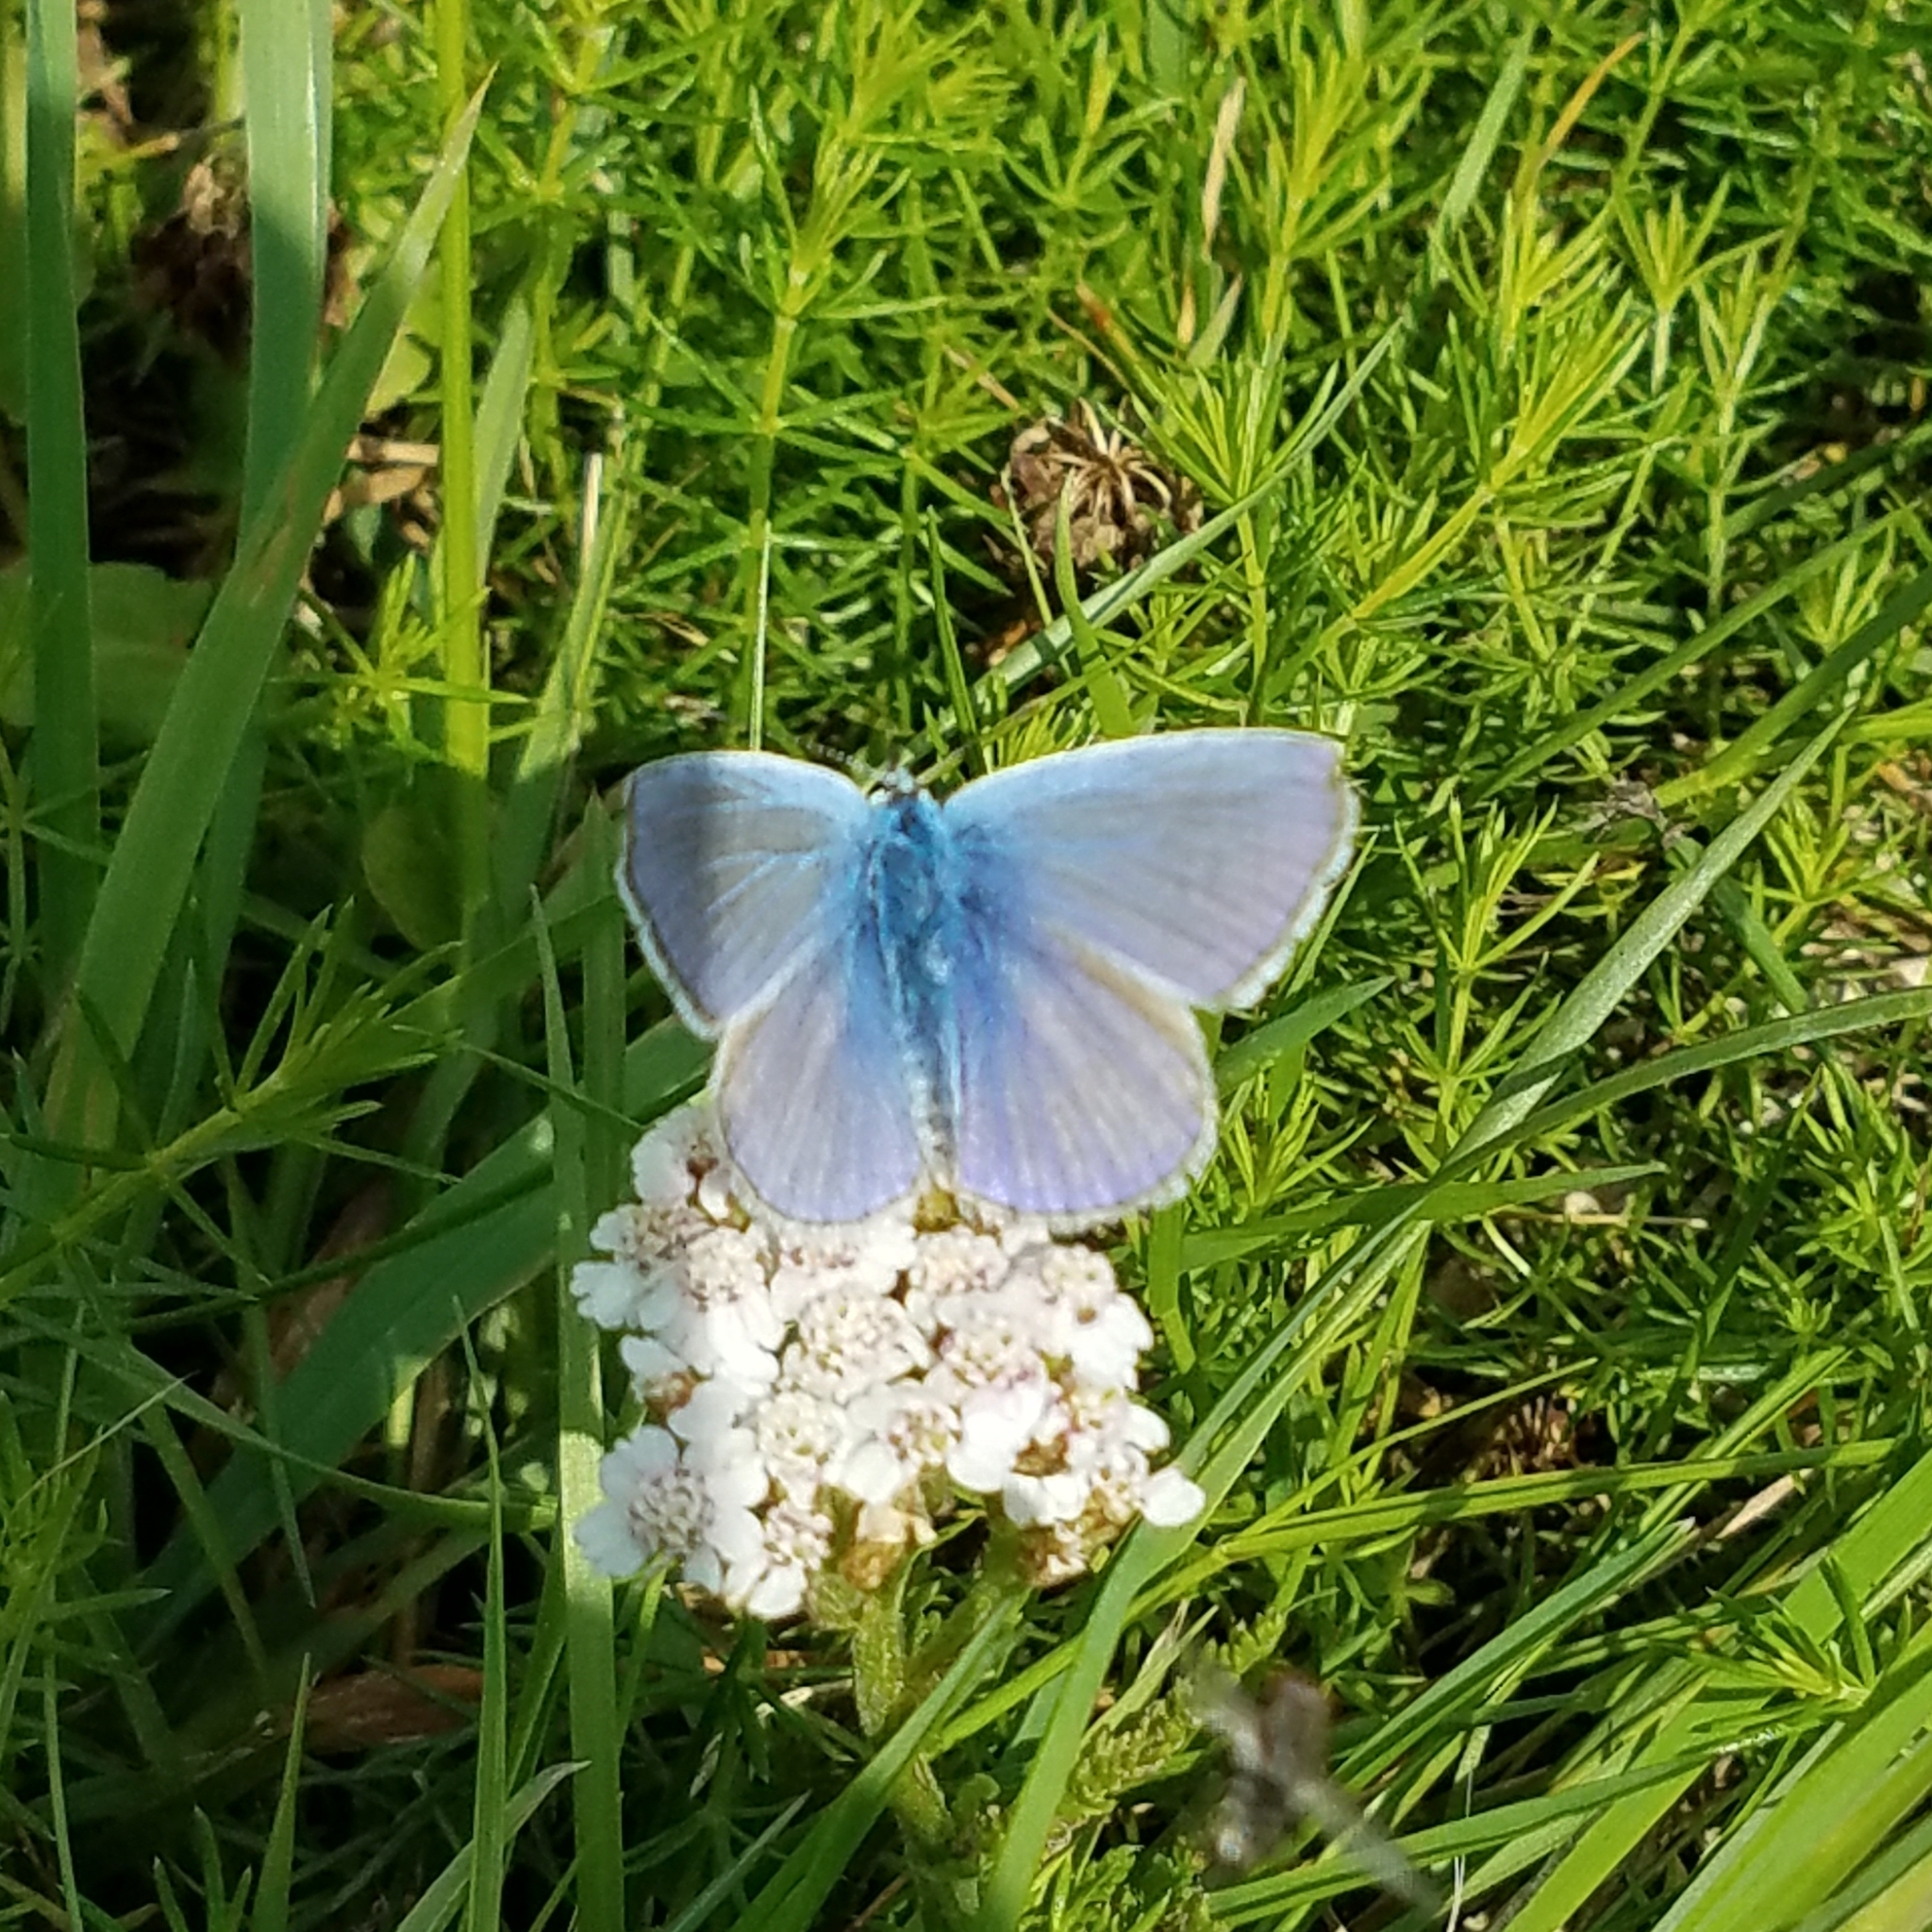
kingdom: Animalia
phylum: Arthropoda
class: Insecta
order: Lepidoptera
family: Lycaenidae
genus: Polyommatus
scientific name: Polyommatus icarus
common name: Common blue
